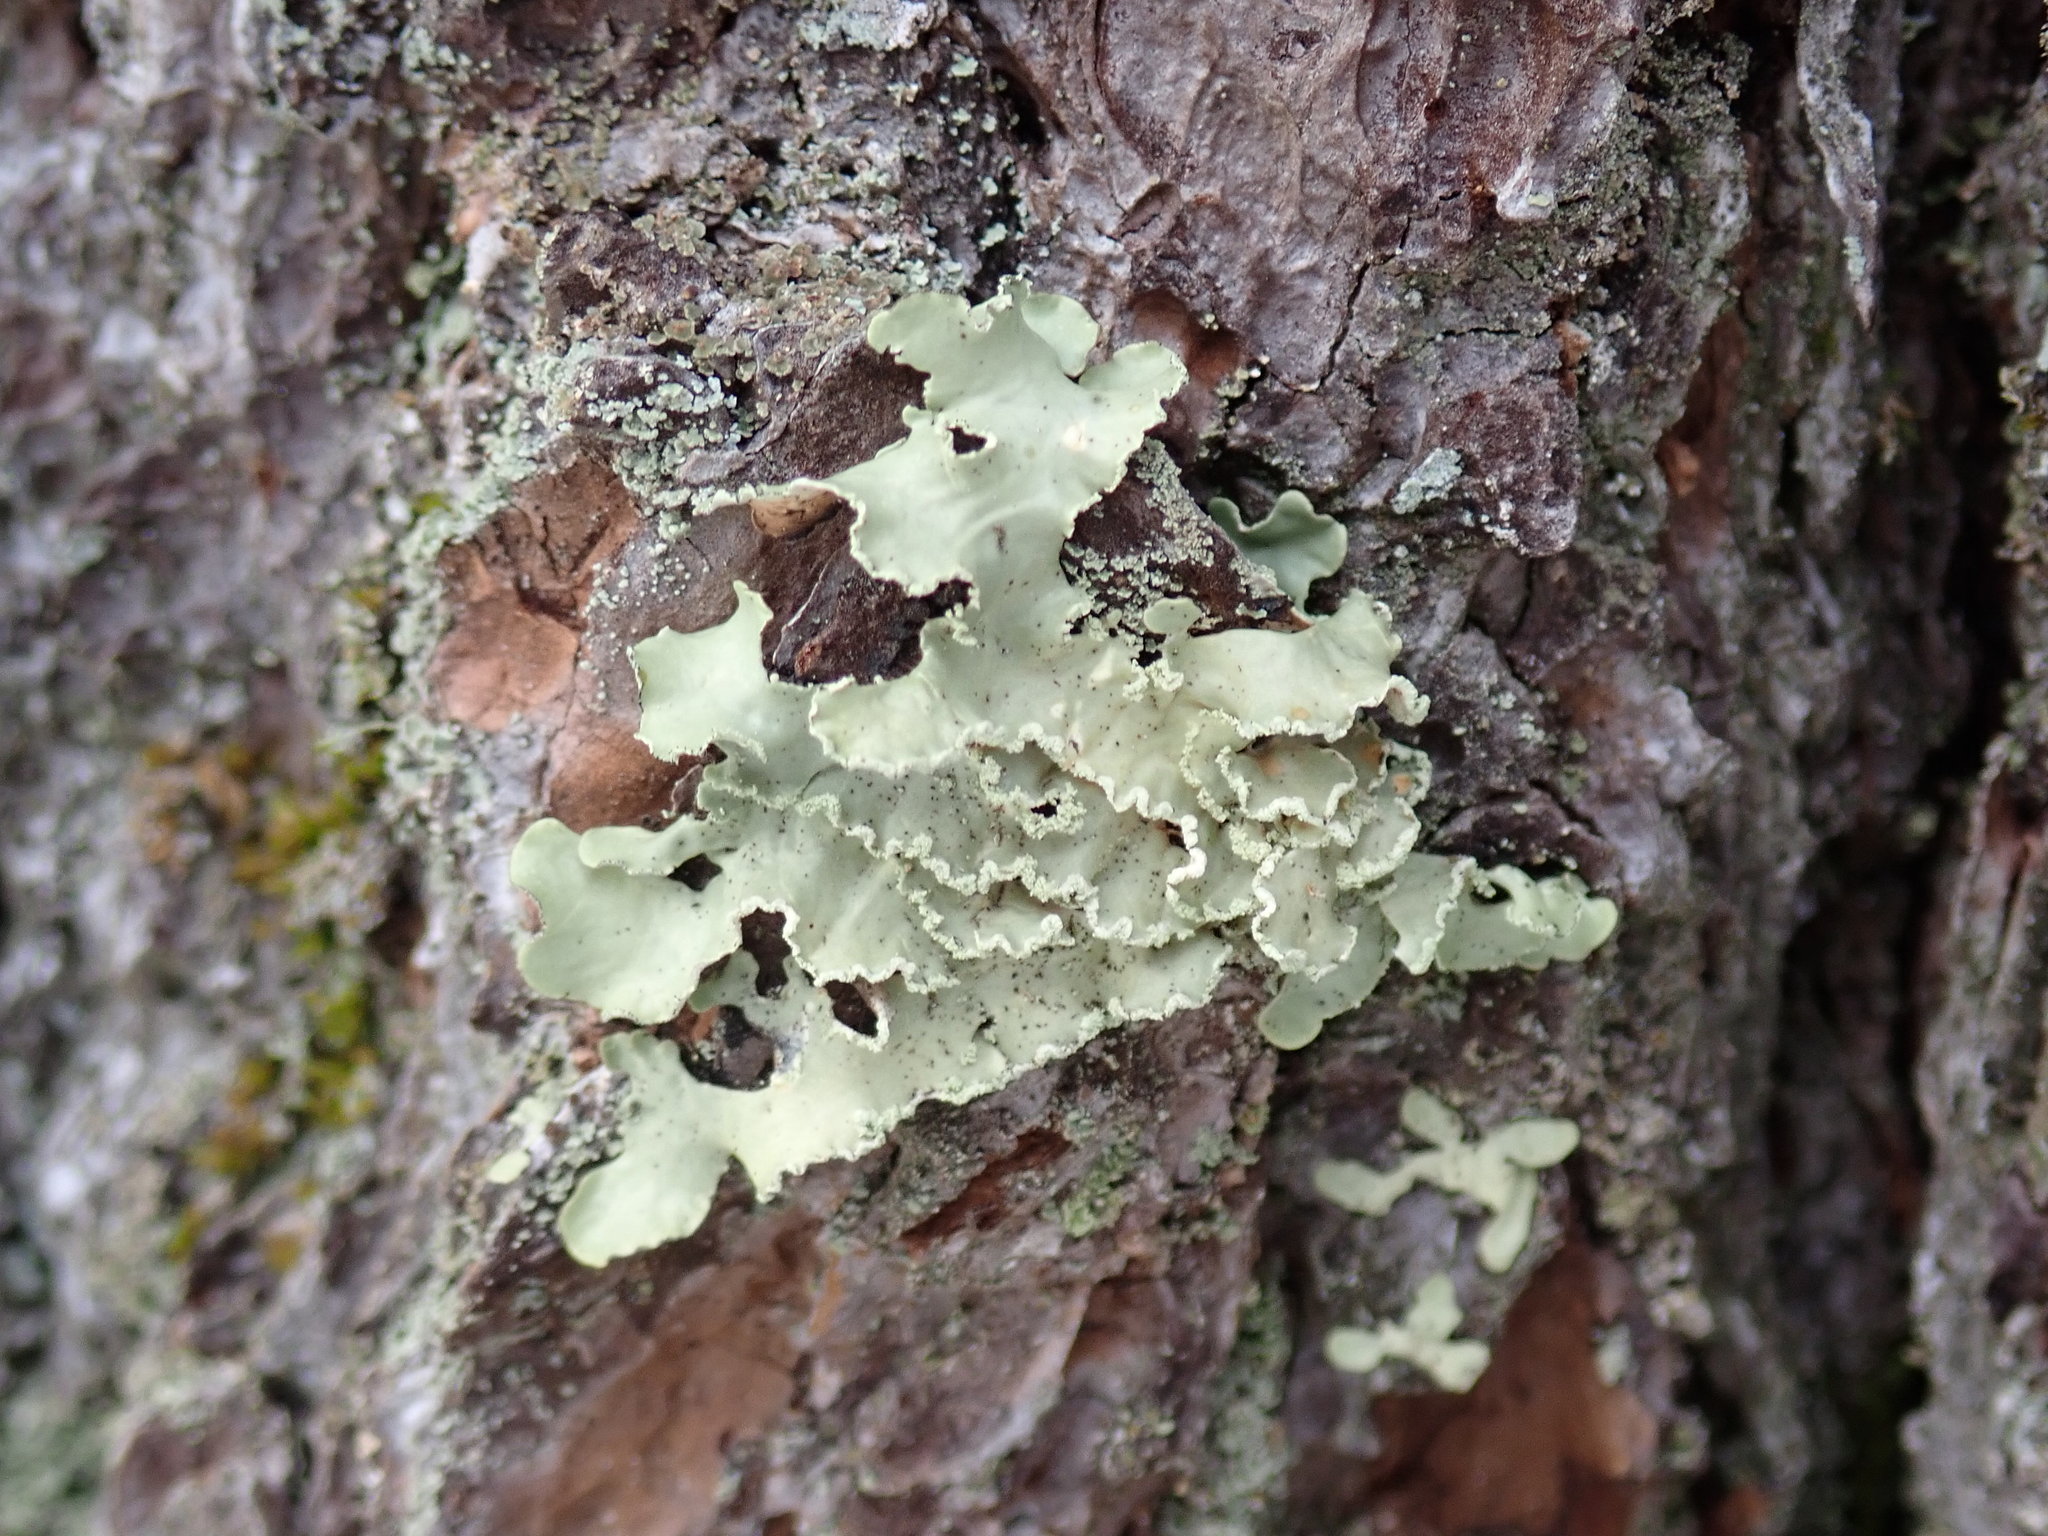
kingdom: Fungi
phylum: Ascomycota
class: Lecanoromycetes
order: Lecanorales
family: Parmeliaceae
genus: Usnocetraria
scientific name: Usnocetraria oakesiana
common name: Yellow ribbon lichen
